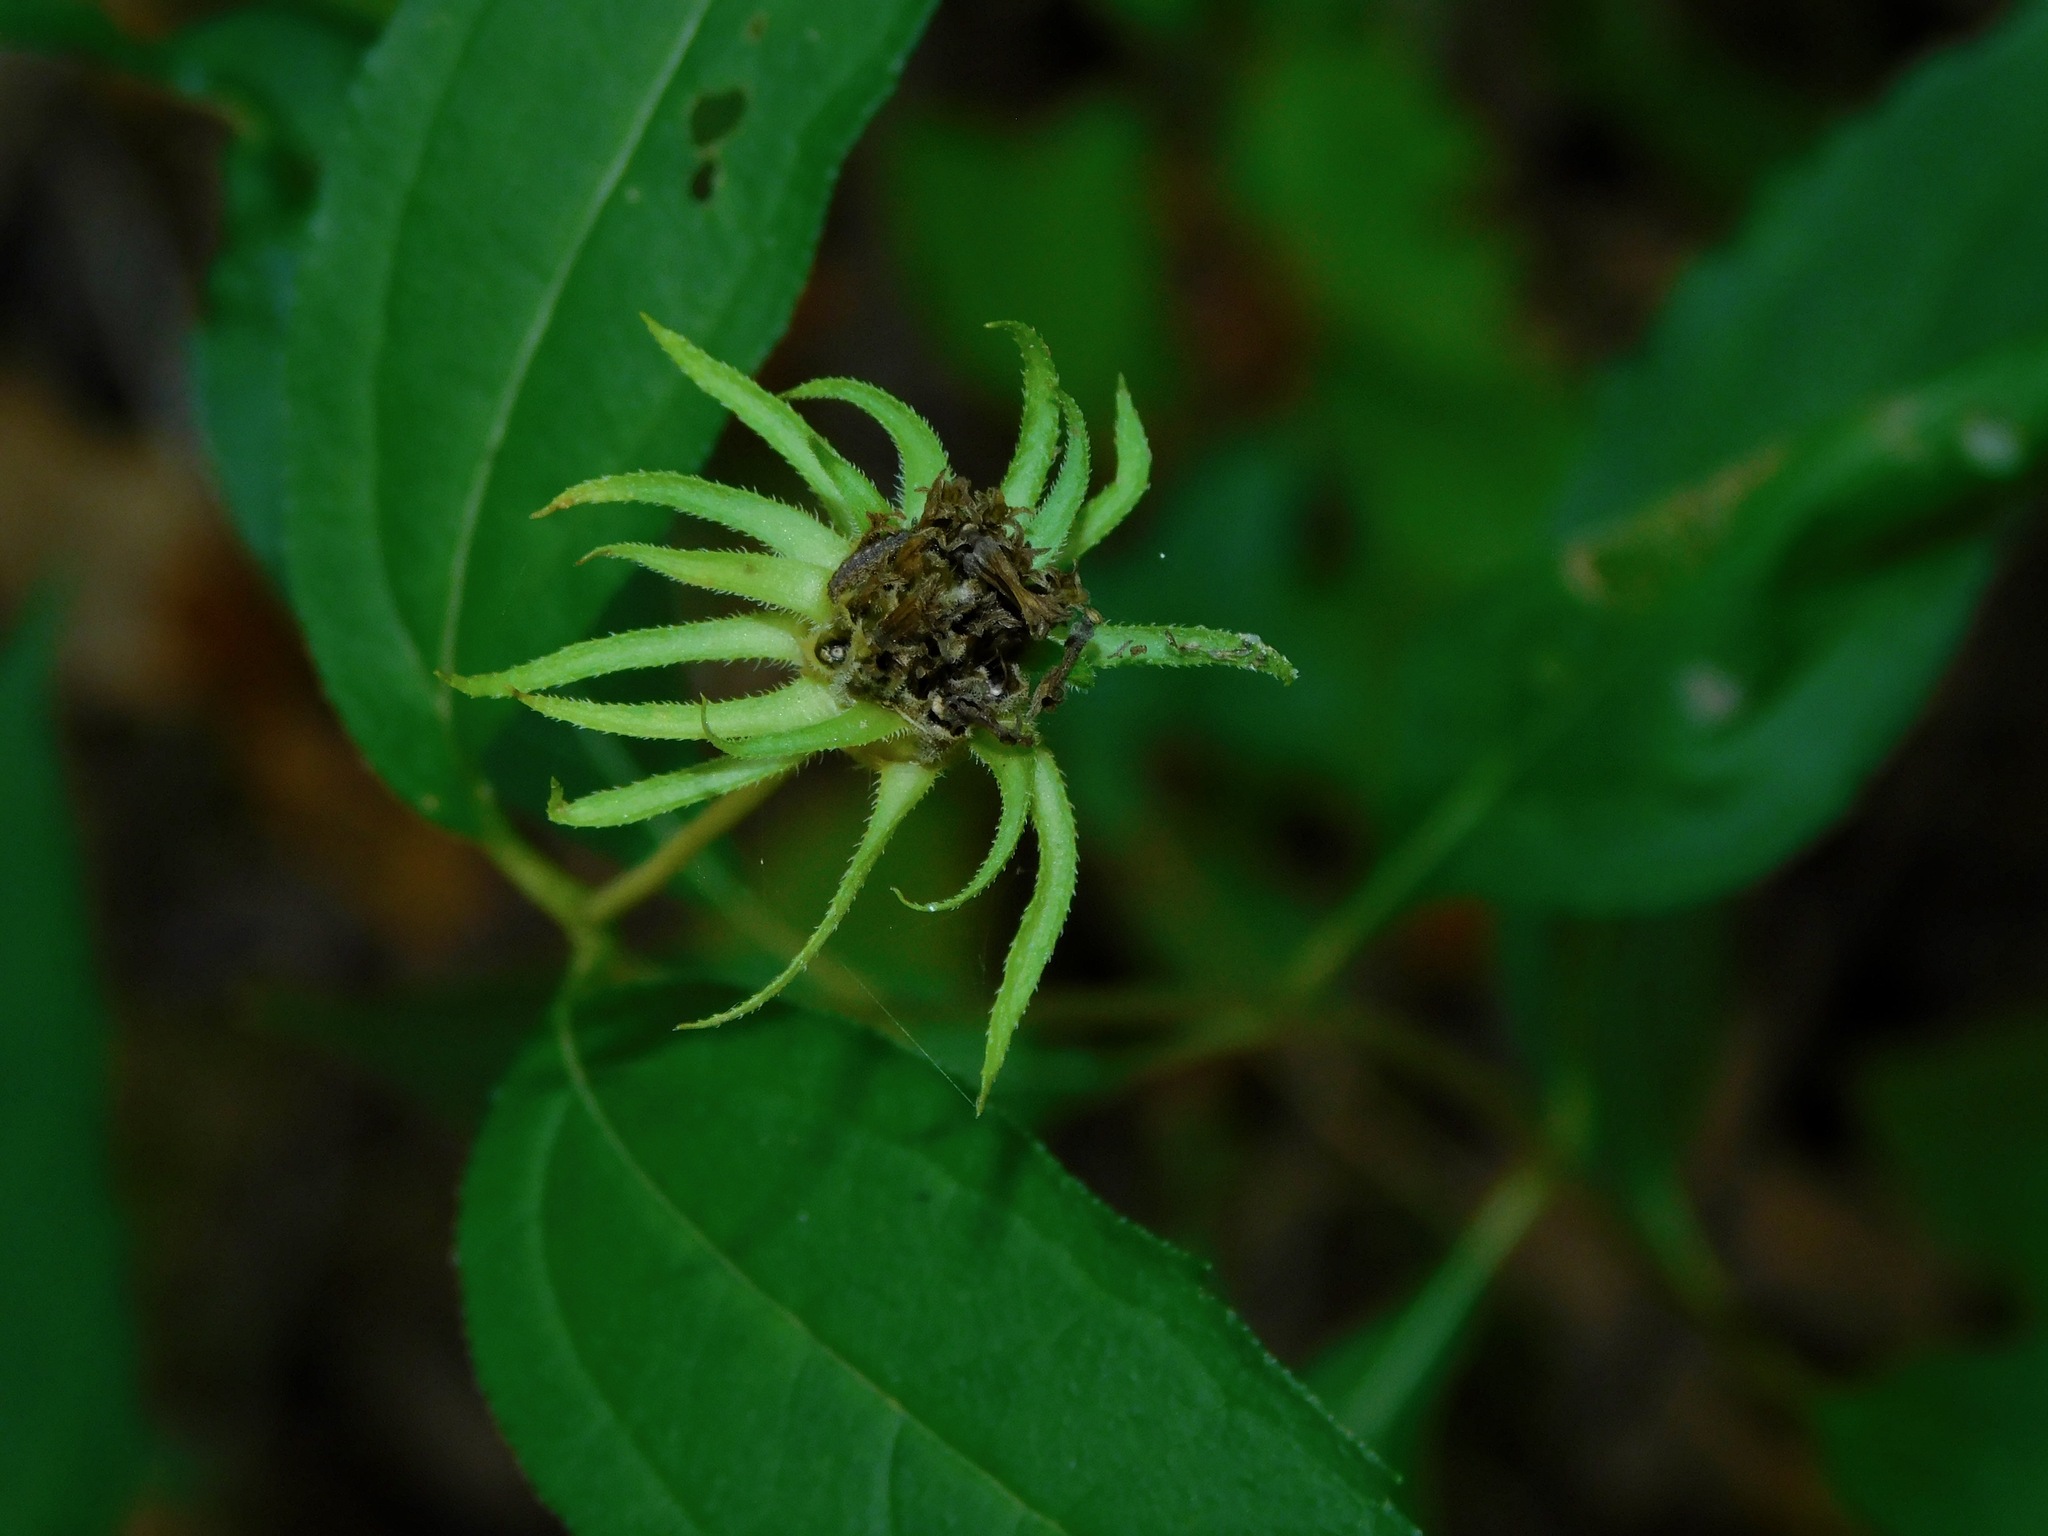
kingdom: Plantae
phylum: Tracheophyta
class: Magnoliopsida
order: Asterales
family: Asteraceae
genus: Helianthus
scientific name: Helianthus decapetalus
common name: Thin-leaved sunflower
